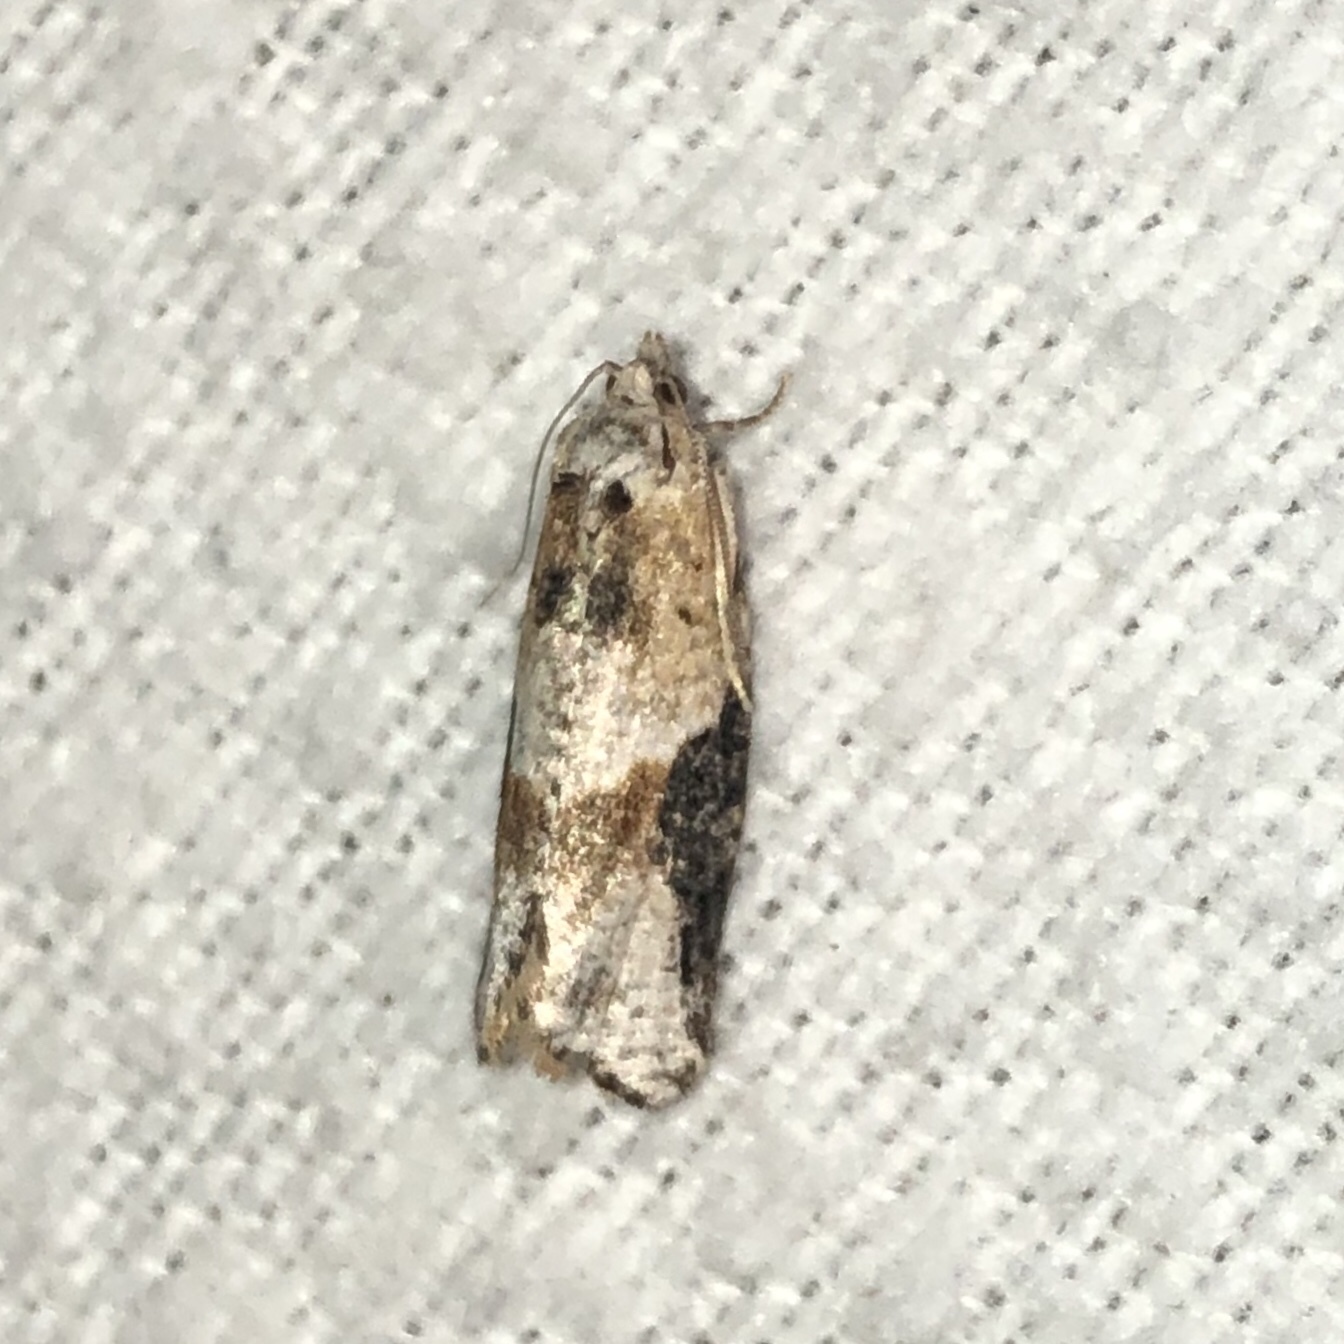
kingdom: Animalia
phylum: Arthropoda
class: Insecta
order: Lepidoptera
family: Tortricidae
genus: Argyrotaenia
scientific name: Argyrotaenia mariana
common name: Gray-banded leafroller moth
